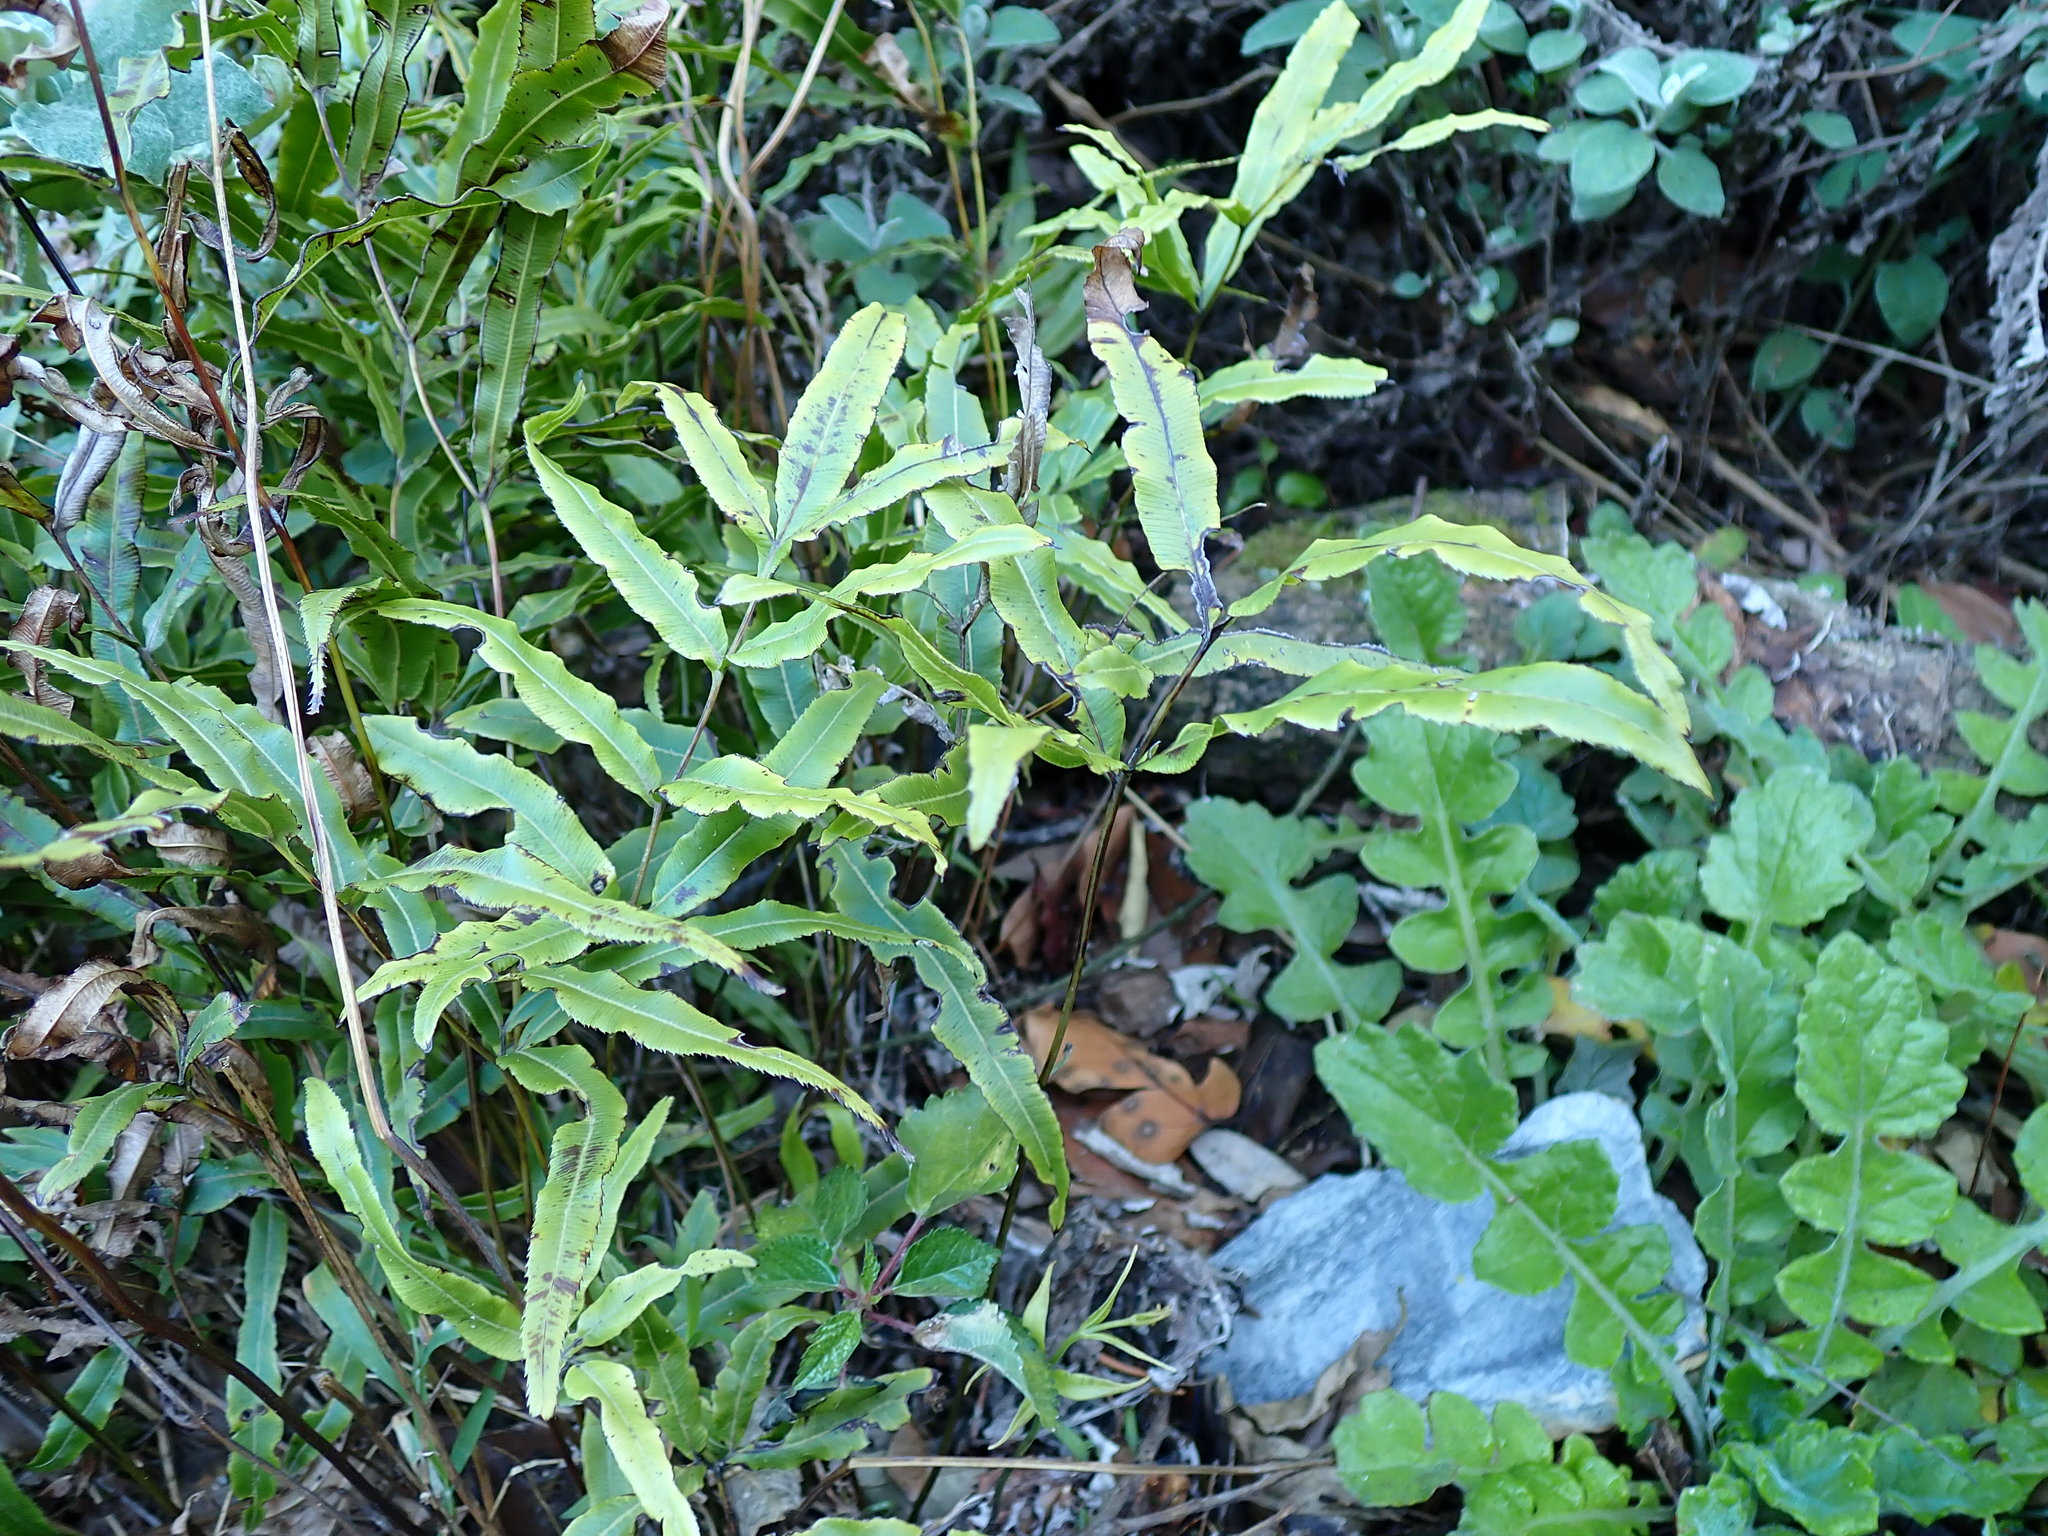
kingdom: Plantae
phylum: Tracheophyta
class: Polypodiopsida
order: Polypodiales
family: Pteridaceae
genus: Pteris
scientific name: Pteris cretica
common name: Ribbon fern
